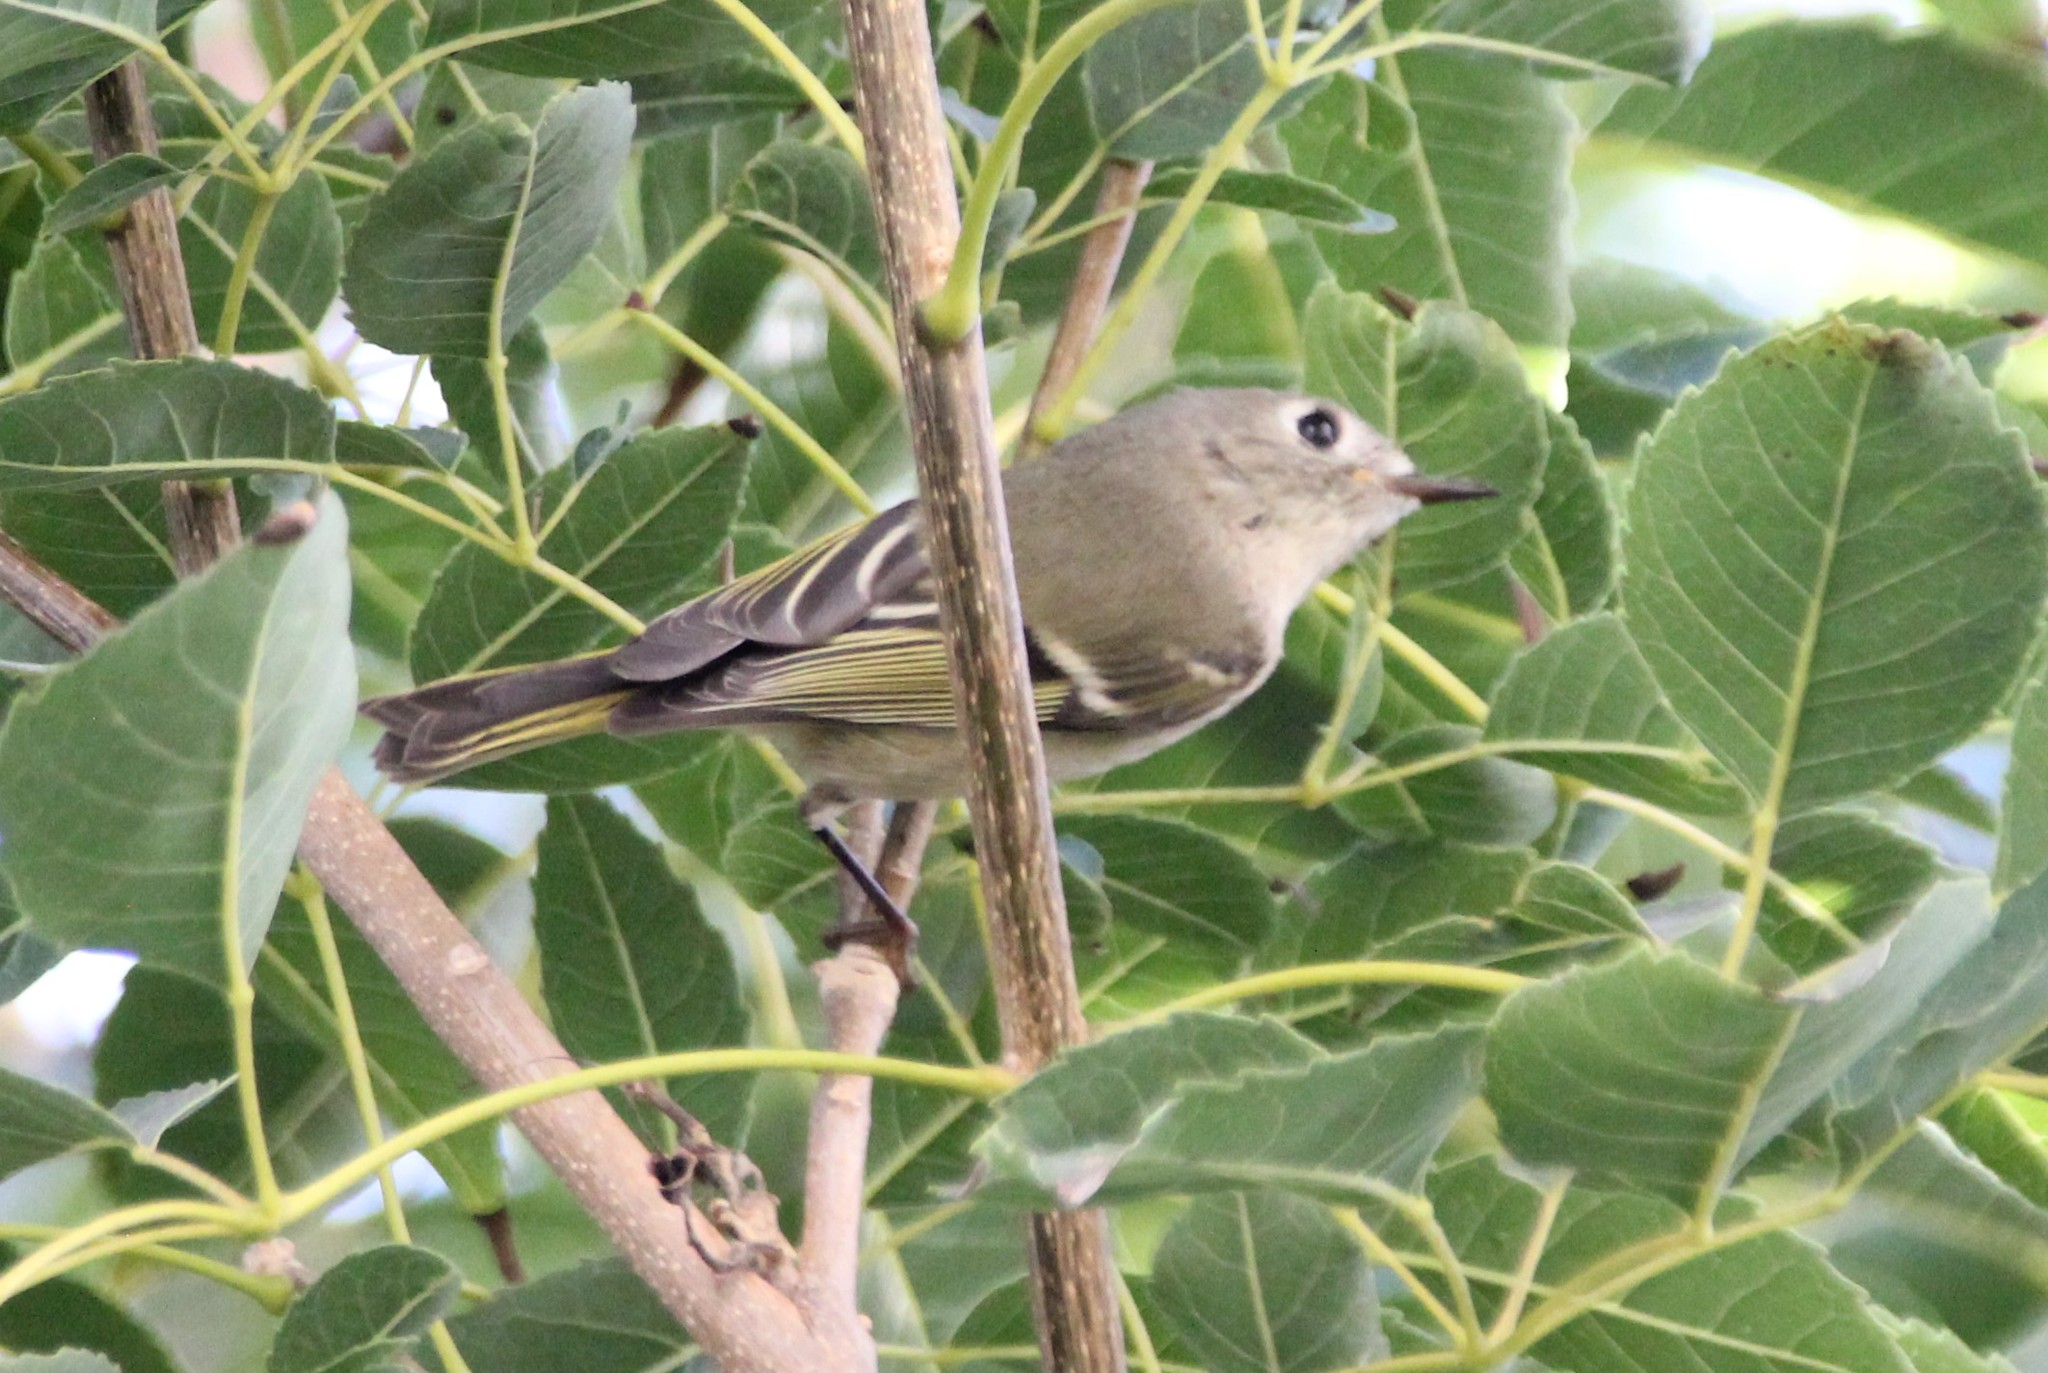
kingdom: Animalia
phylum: Chordata
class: Aves
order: Passeriformes
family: Regulidae
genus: Regulus
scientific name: Regulus calendula
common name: Ruby-crowned kinglet
